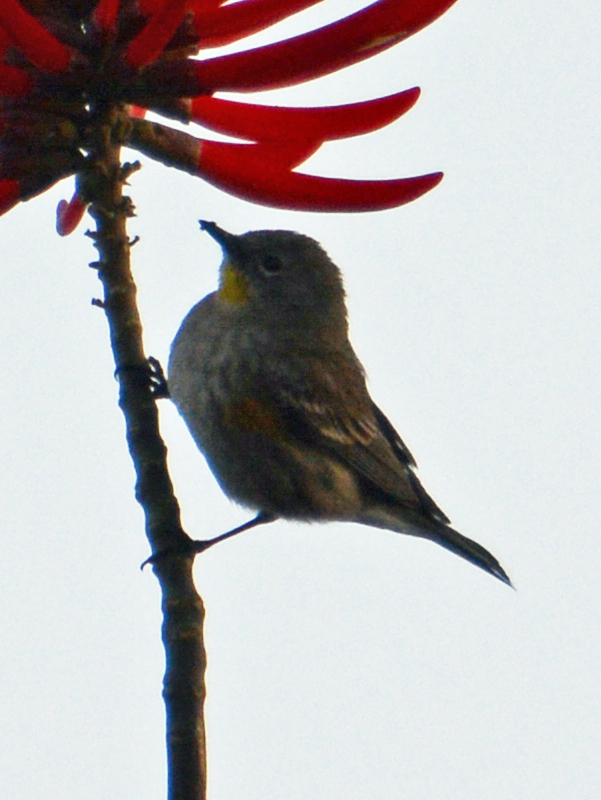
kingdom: Animalia
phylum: Chordata
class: Aves
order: Passeriformes
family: Parulidae
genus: Setophaga
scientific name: Setophaga coronata
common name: Myrtle warbler
